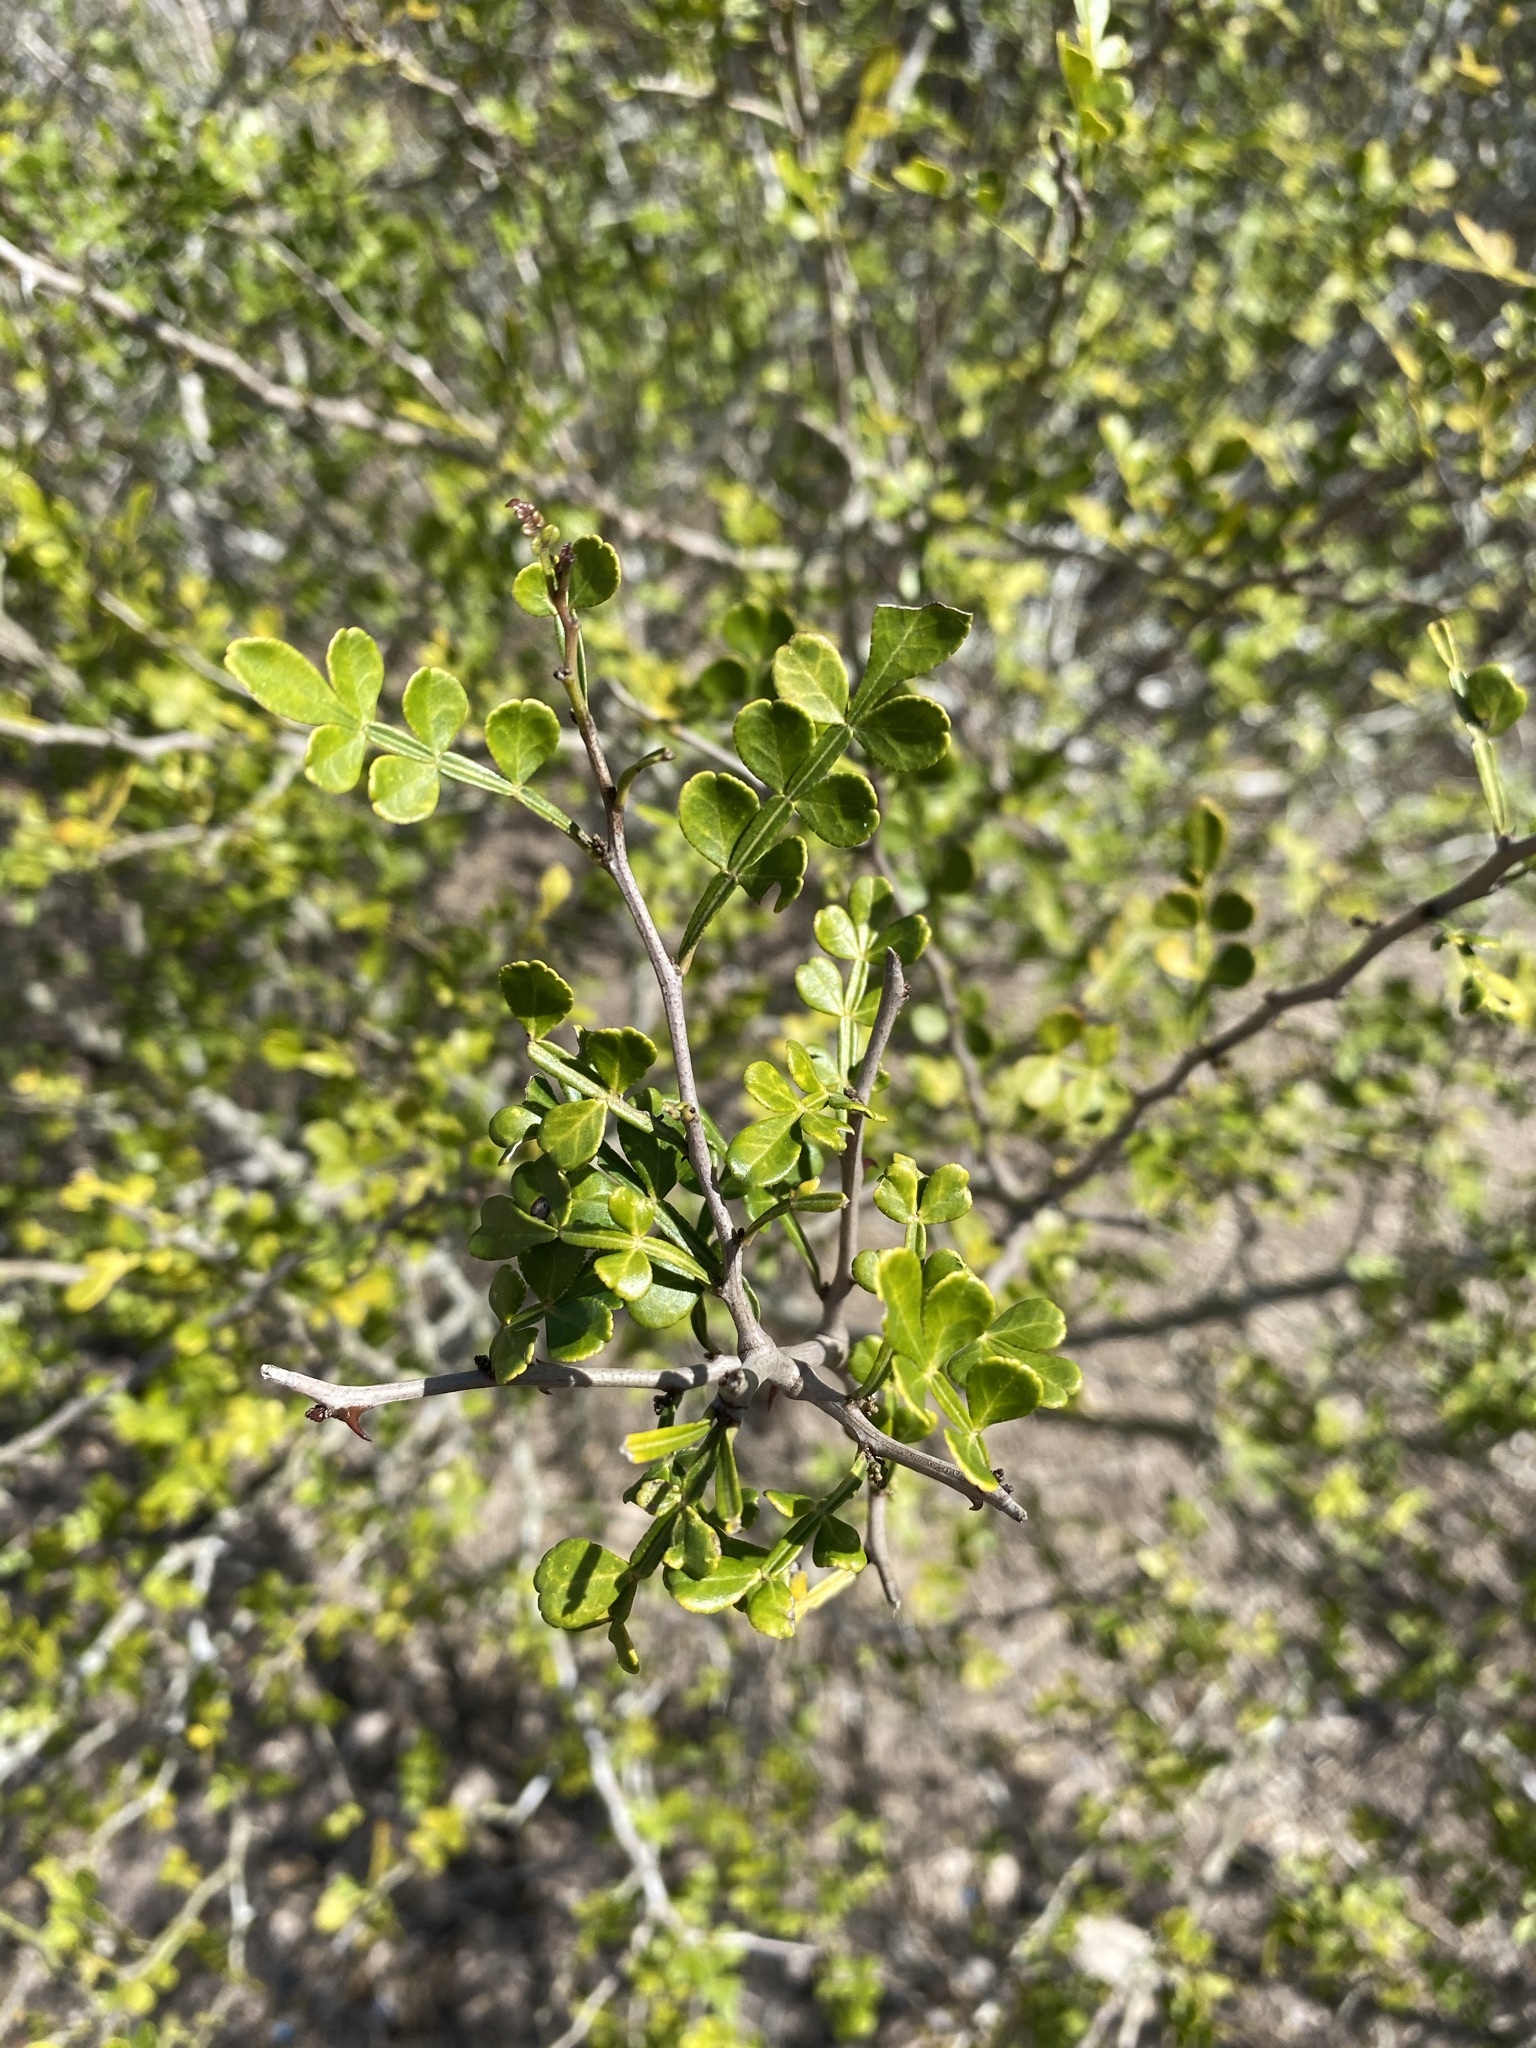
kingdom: Plantae
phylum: Tracheophyta
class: Magnoliopsida
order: Sapindales
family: Rutaceae
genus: Zanthoxylum
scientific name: Zanthoxylum fagara
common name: Lime prickly-ash
